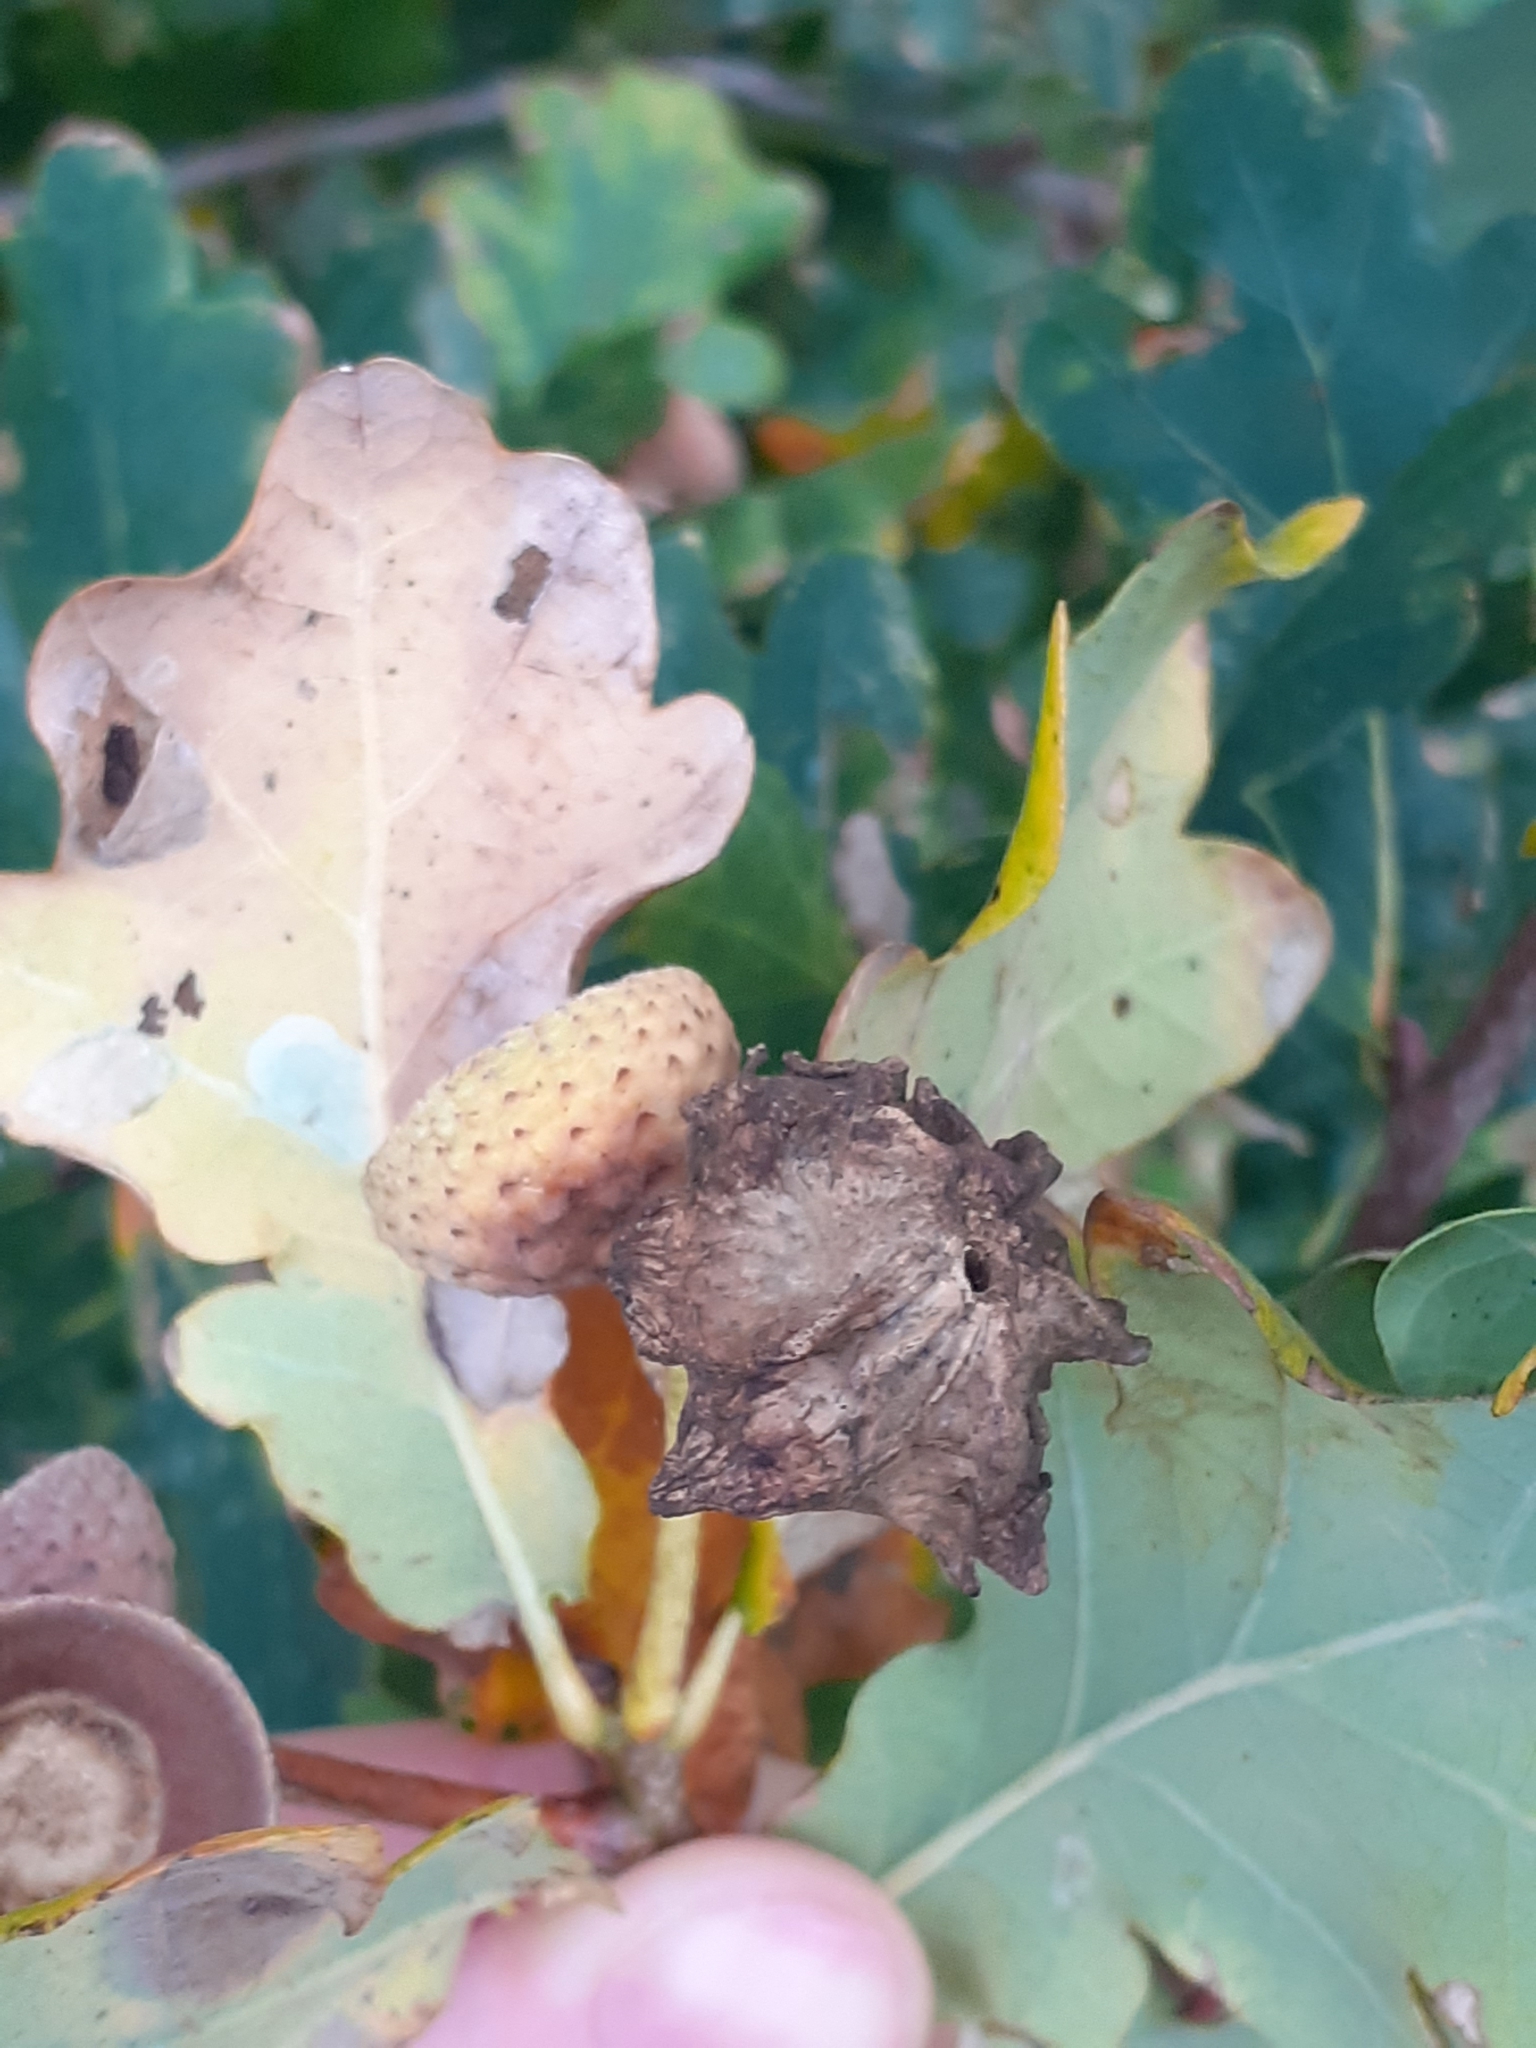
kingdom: Animalia
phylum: Arthropoda
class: Insecta
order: Hymenoptera
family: Cynipidae
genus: Andricus
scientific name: Andricus quercuscalicis
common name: Knopper gall
